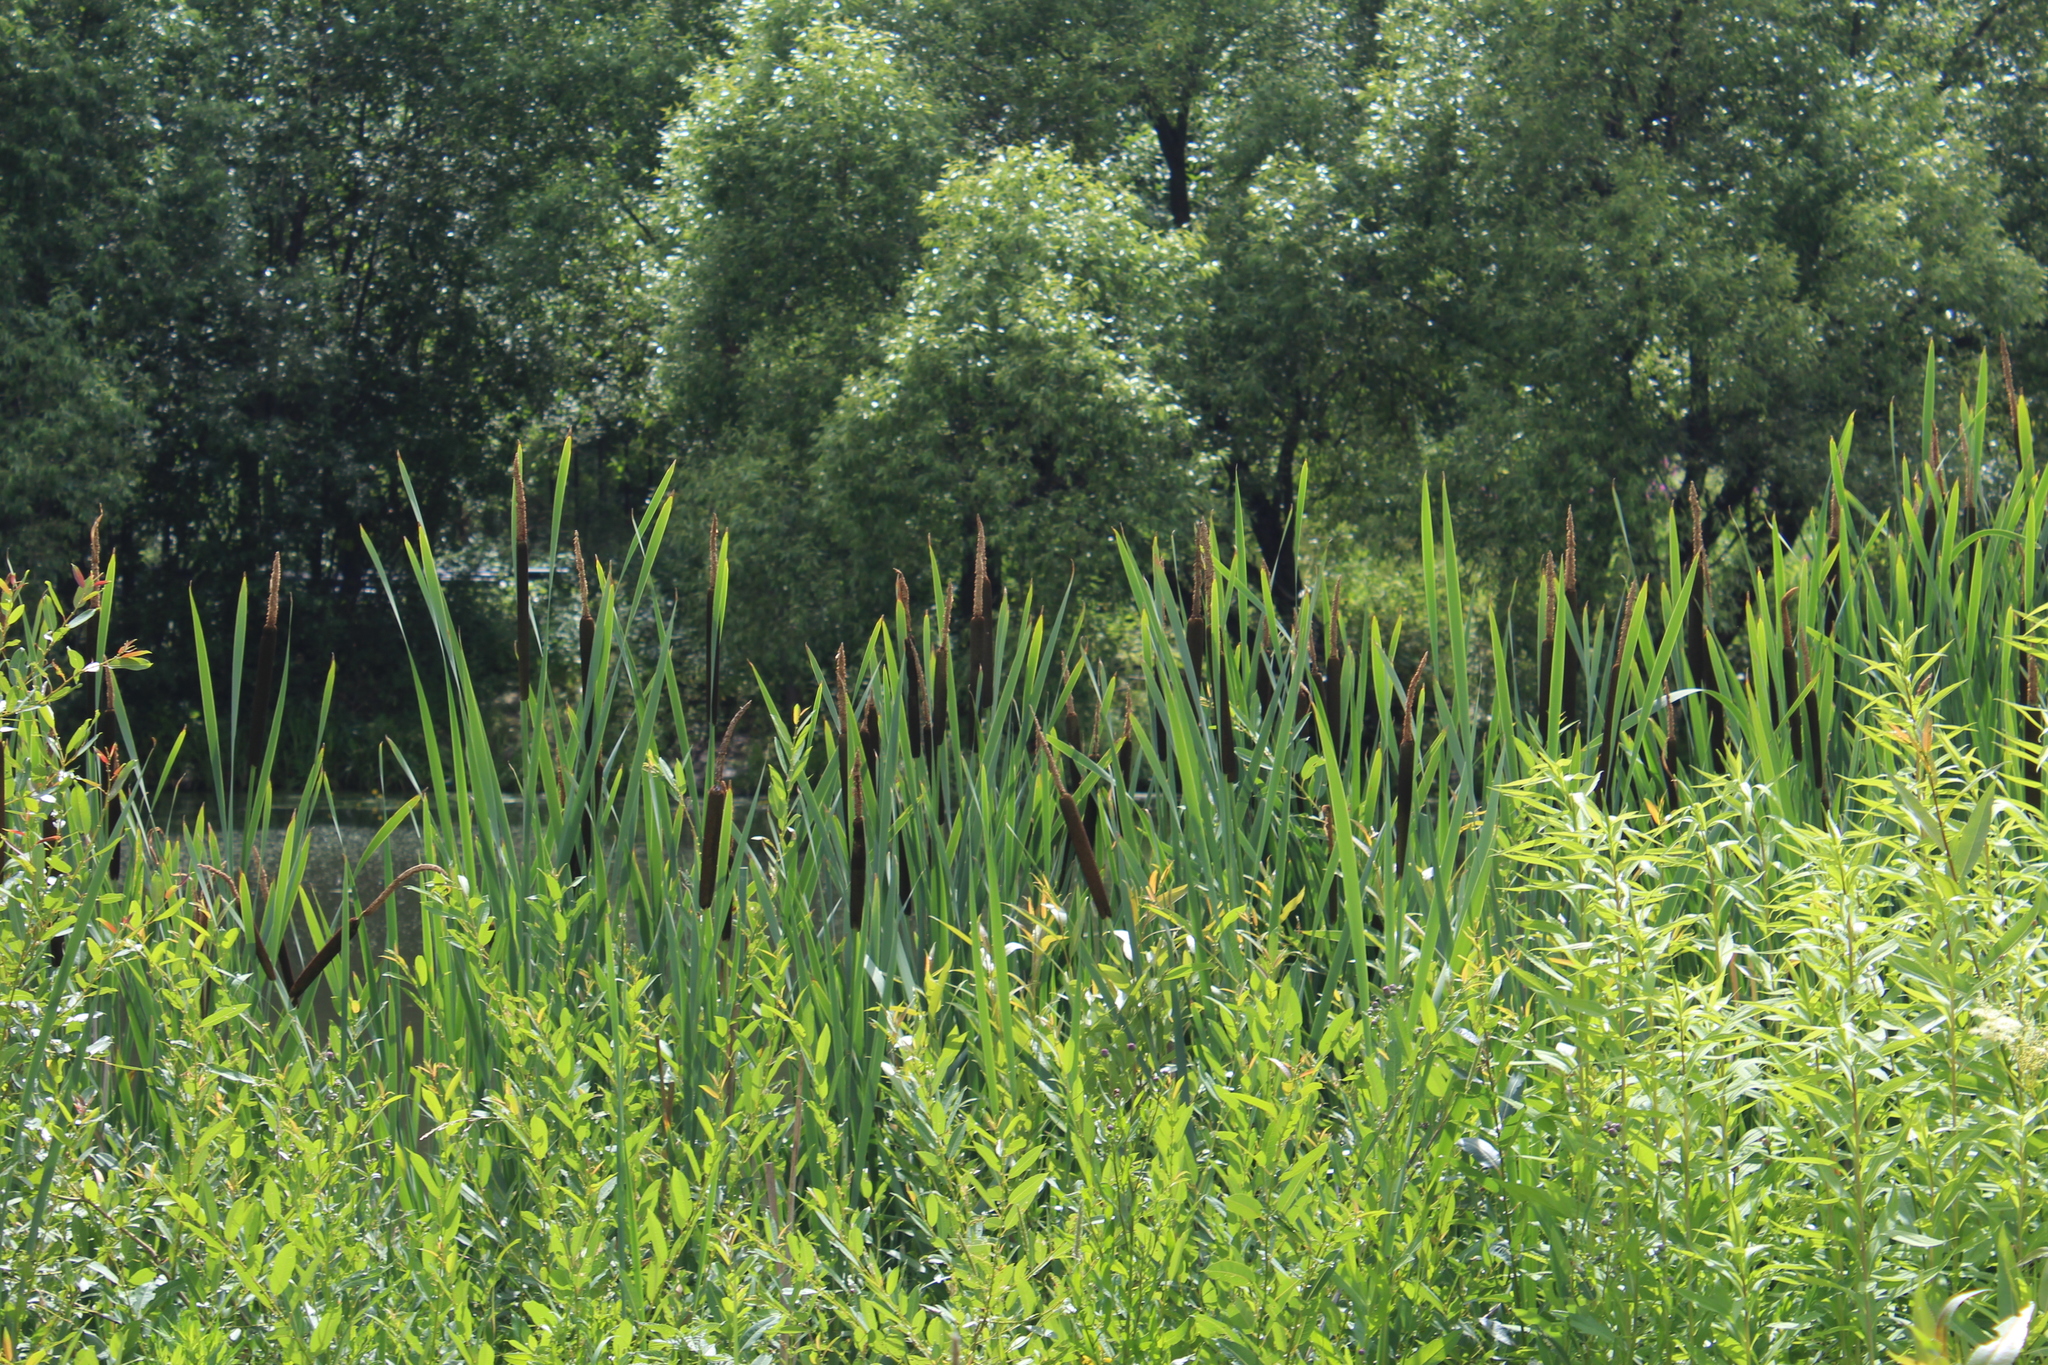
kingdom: Plantae
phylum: Tracheophyta
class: Liliopsida
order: Poales
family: Typhaceae
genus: Typha
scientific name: Typha latifolia
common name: Broadleaf cattail
